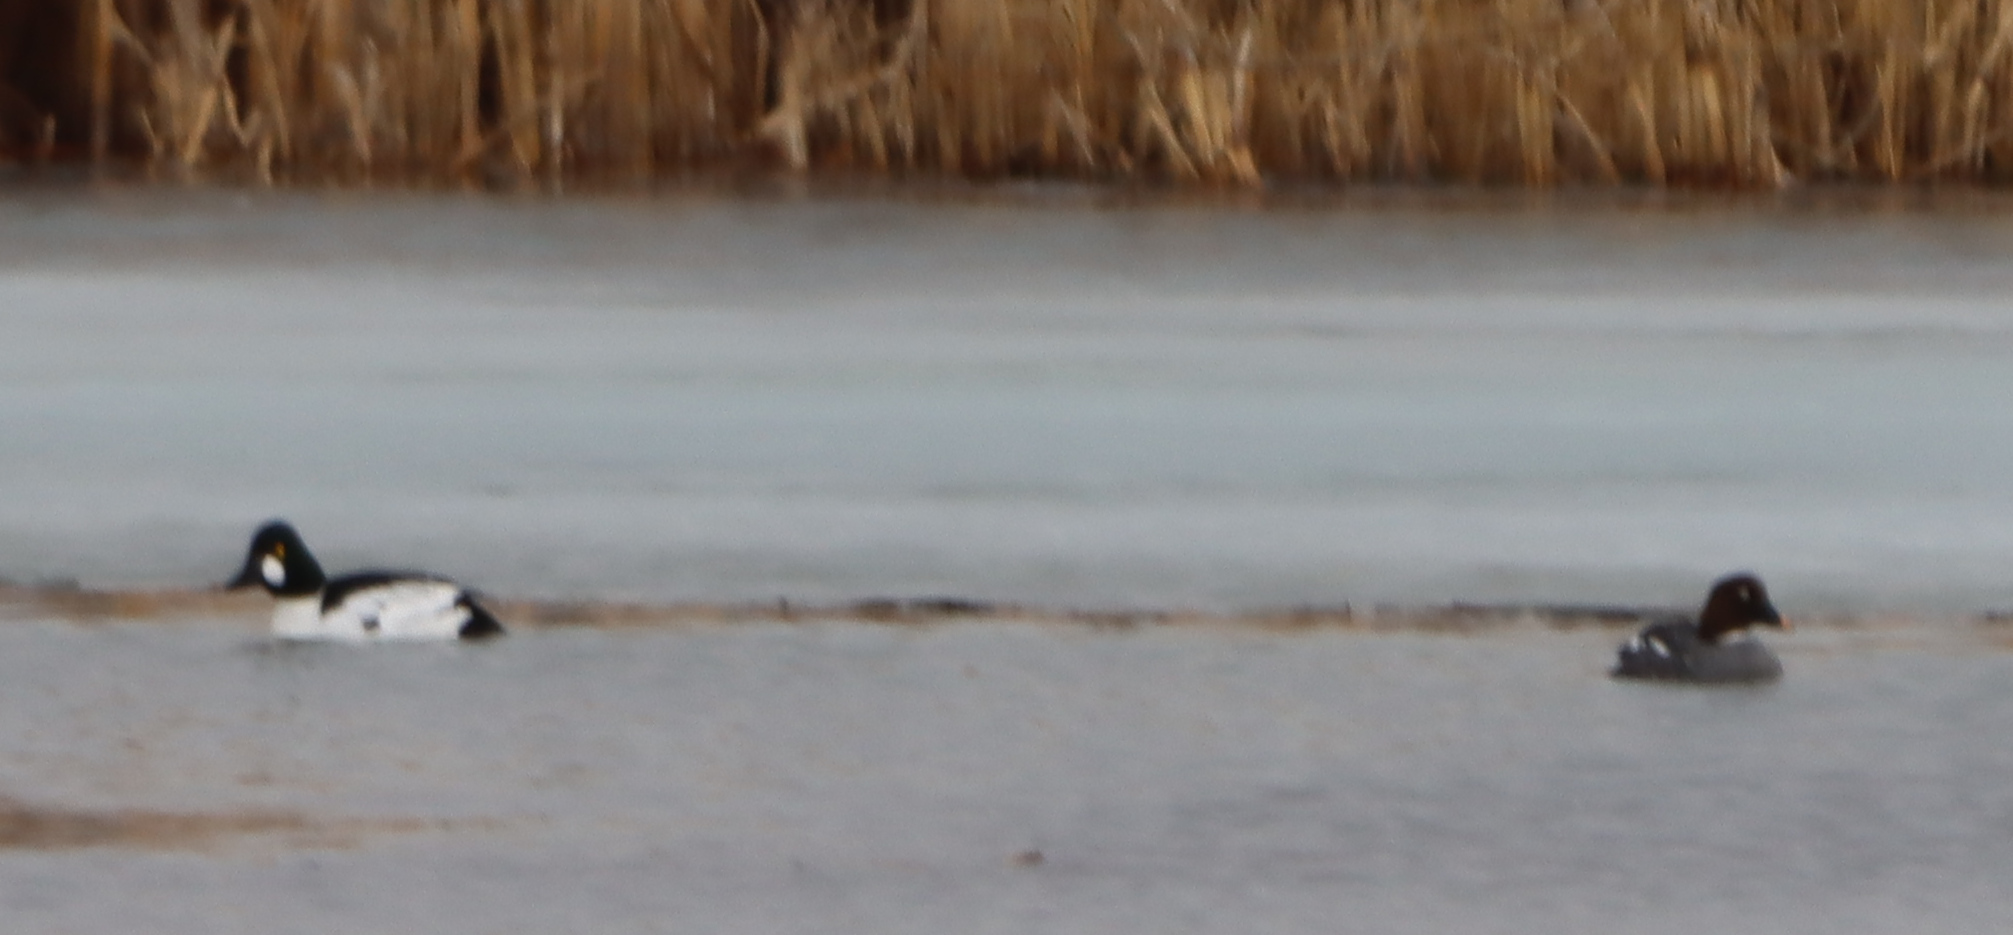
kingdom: Animalia
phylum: Chordata
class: Aves
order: Anseriformes
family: Anatidae
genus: Bucephala
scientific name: Bucephala clangula
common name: Common goldeneye
